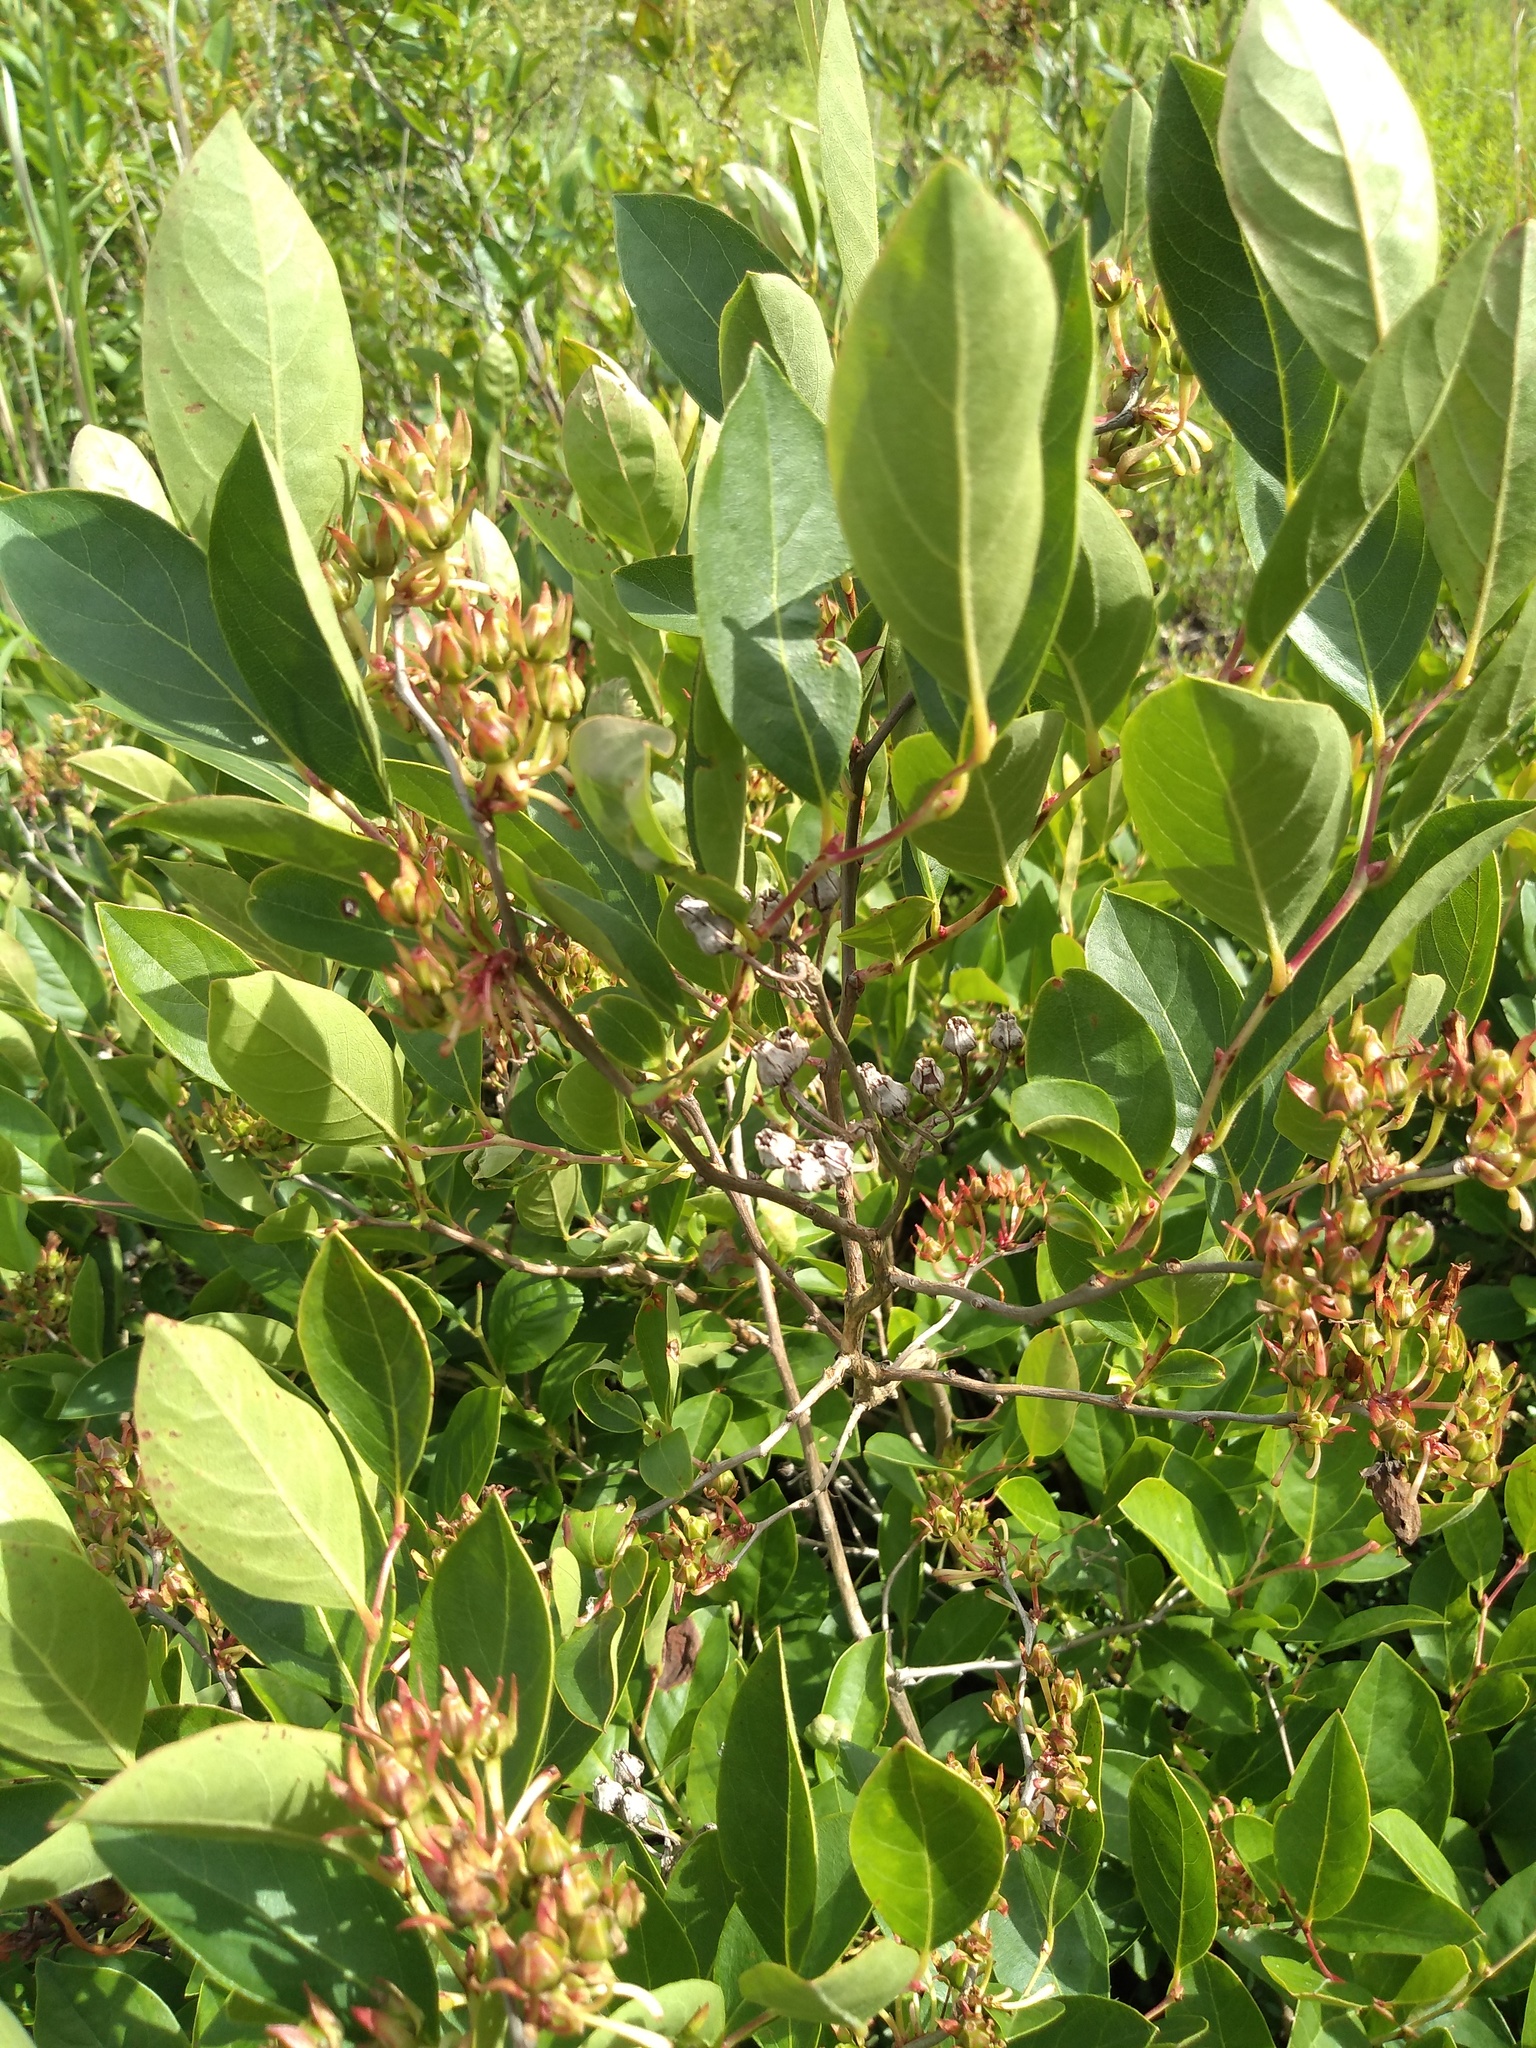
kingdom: Plantae
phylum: Tracheophyta
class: Magnoliopsida
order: Ericales
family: Ericaceae
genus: Lyonia
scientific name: Lyonia mariana
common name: Staggerbush
